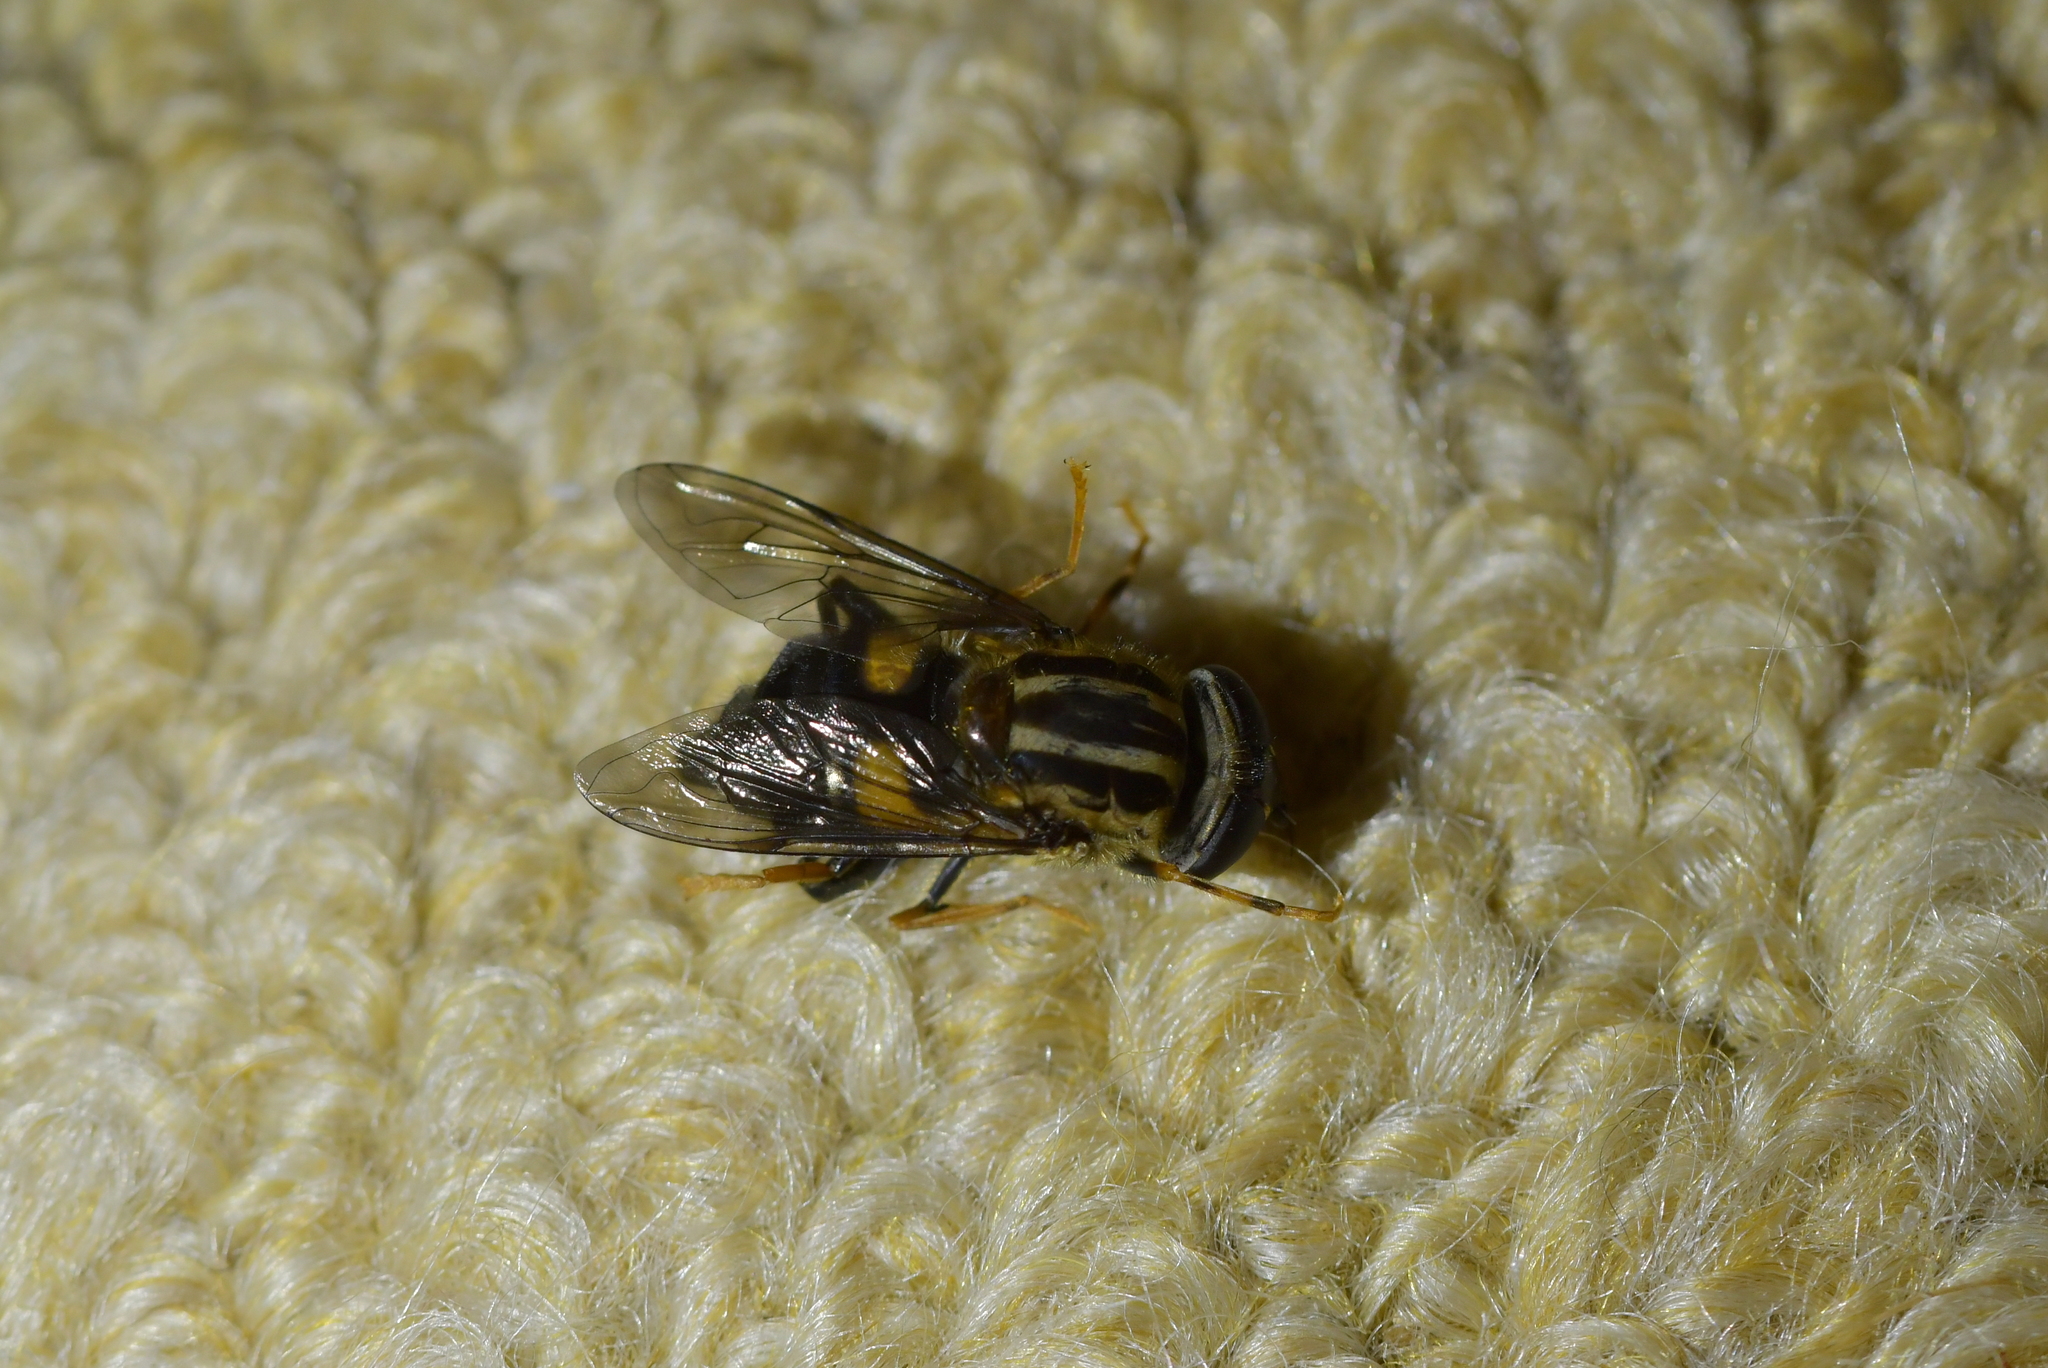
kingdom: Animalia
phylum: Arthropoda
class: Insecta
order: Diptera
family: Syrphidae
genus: Helophilus
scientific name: Helophilus antipodus
